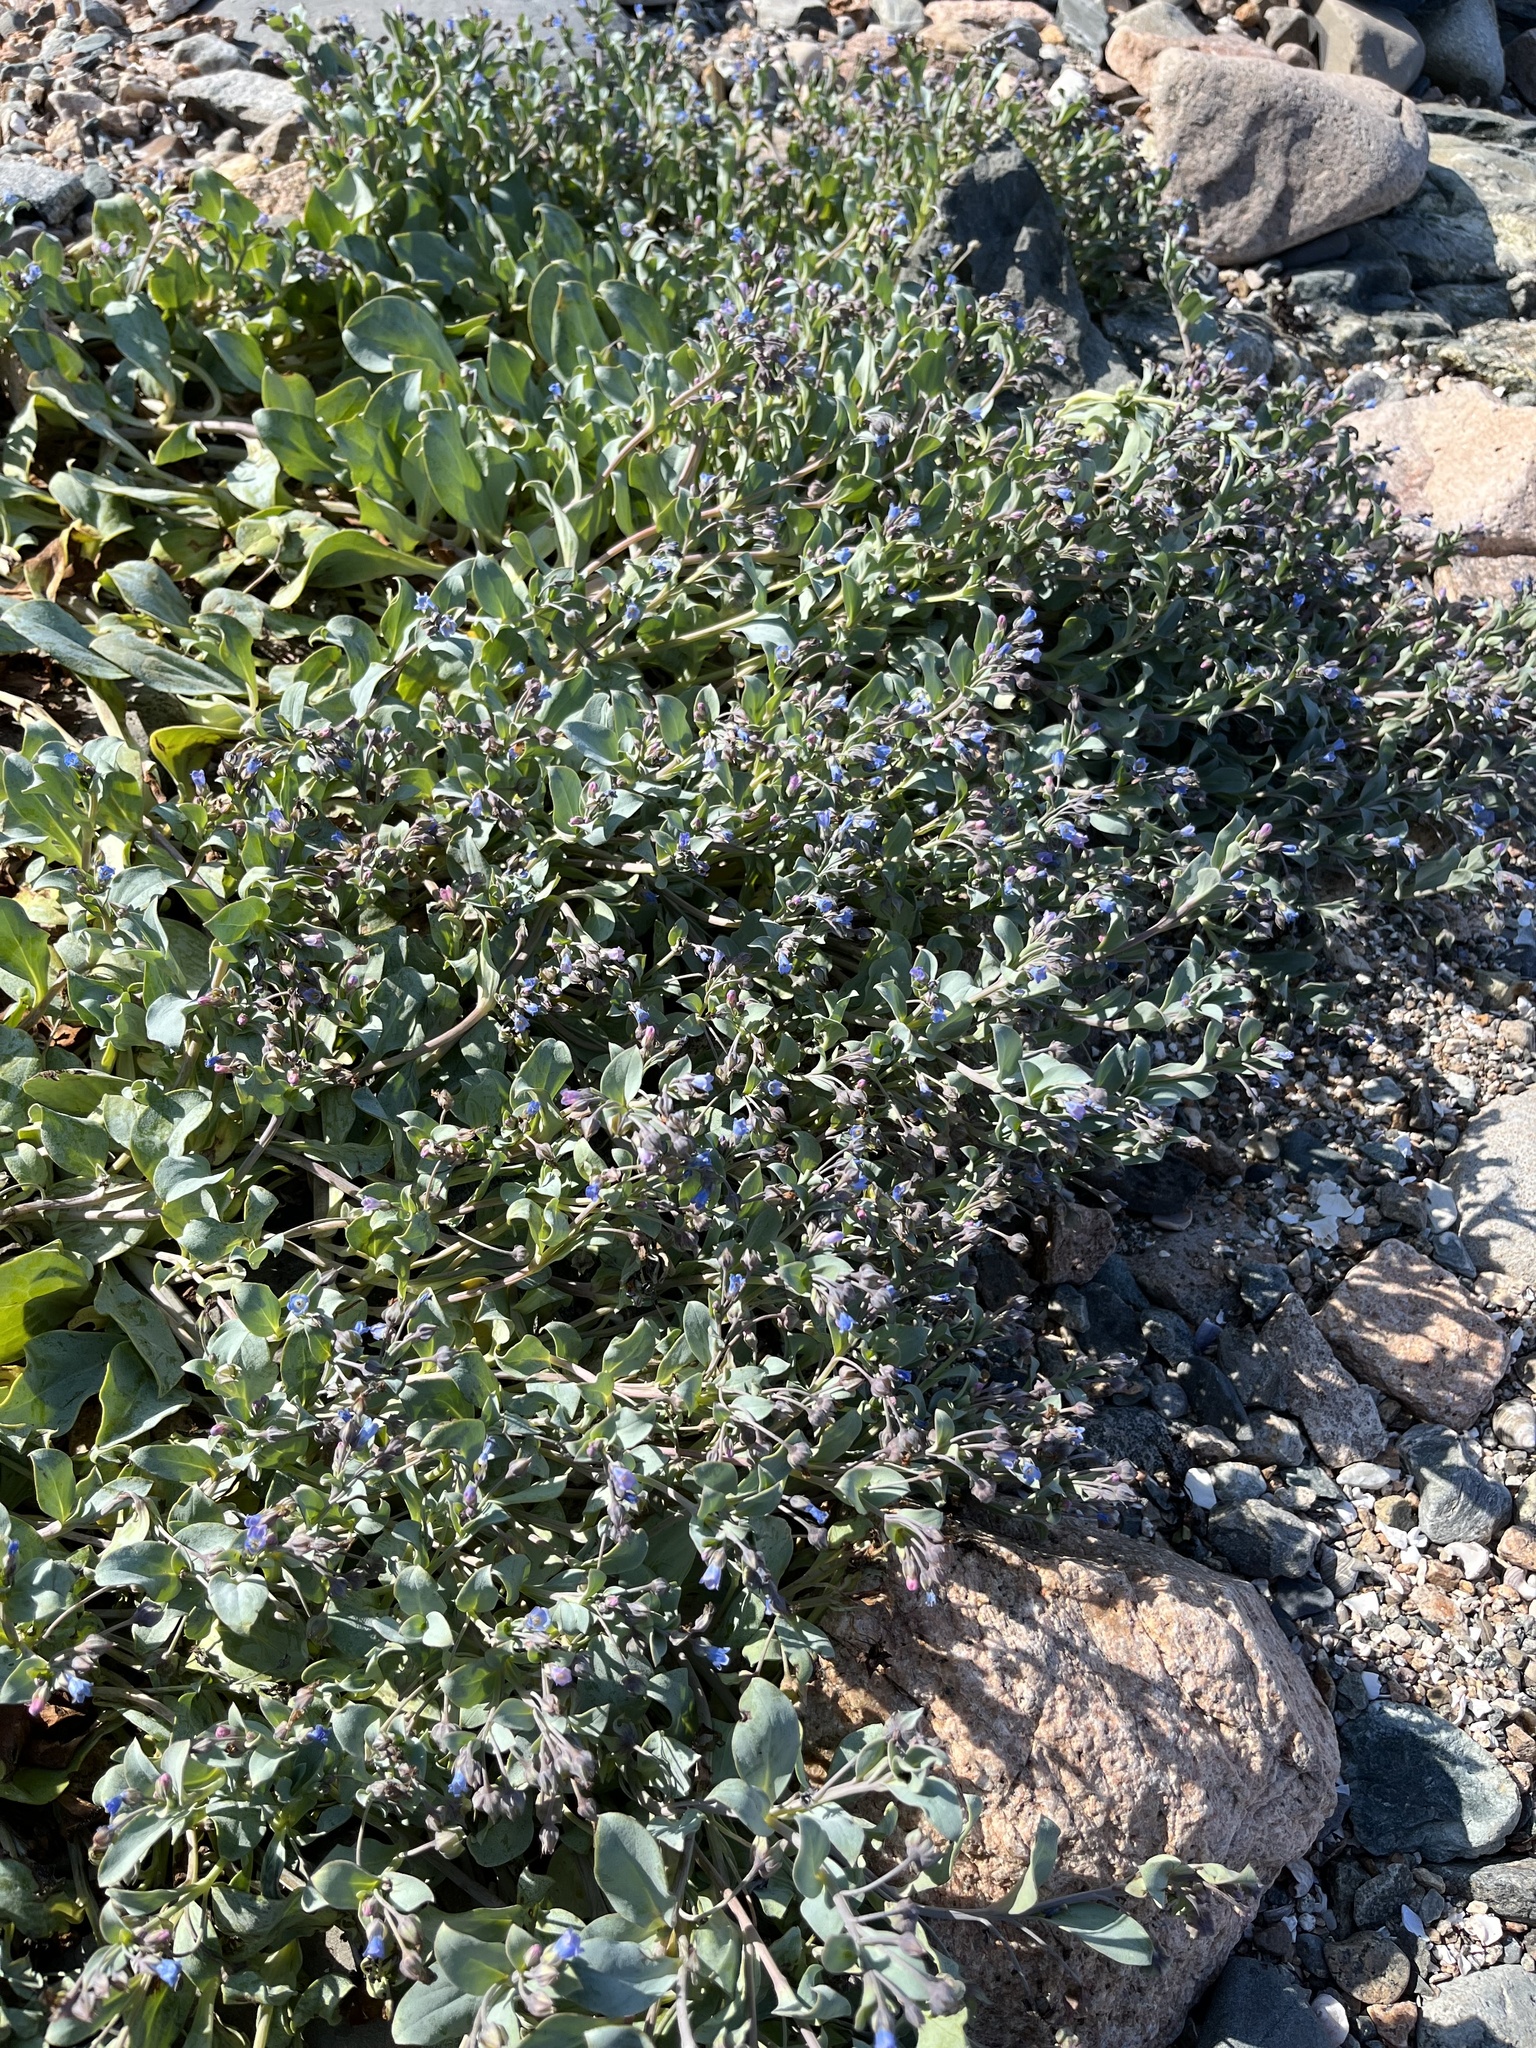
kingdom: Plantae
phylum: Tracheophyta
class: Magnoliopsida
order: Boraginales
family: Boraginaceae
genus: Mertensia
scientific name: Mertensia maritima
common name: Oysterplant
